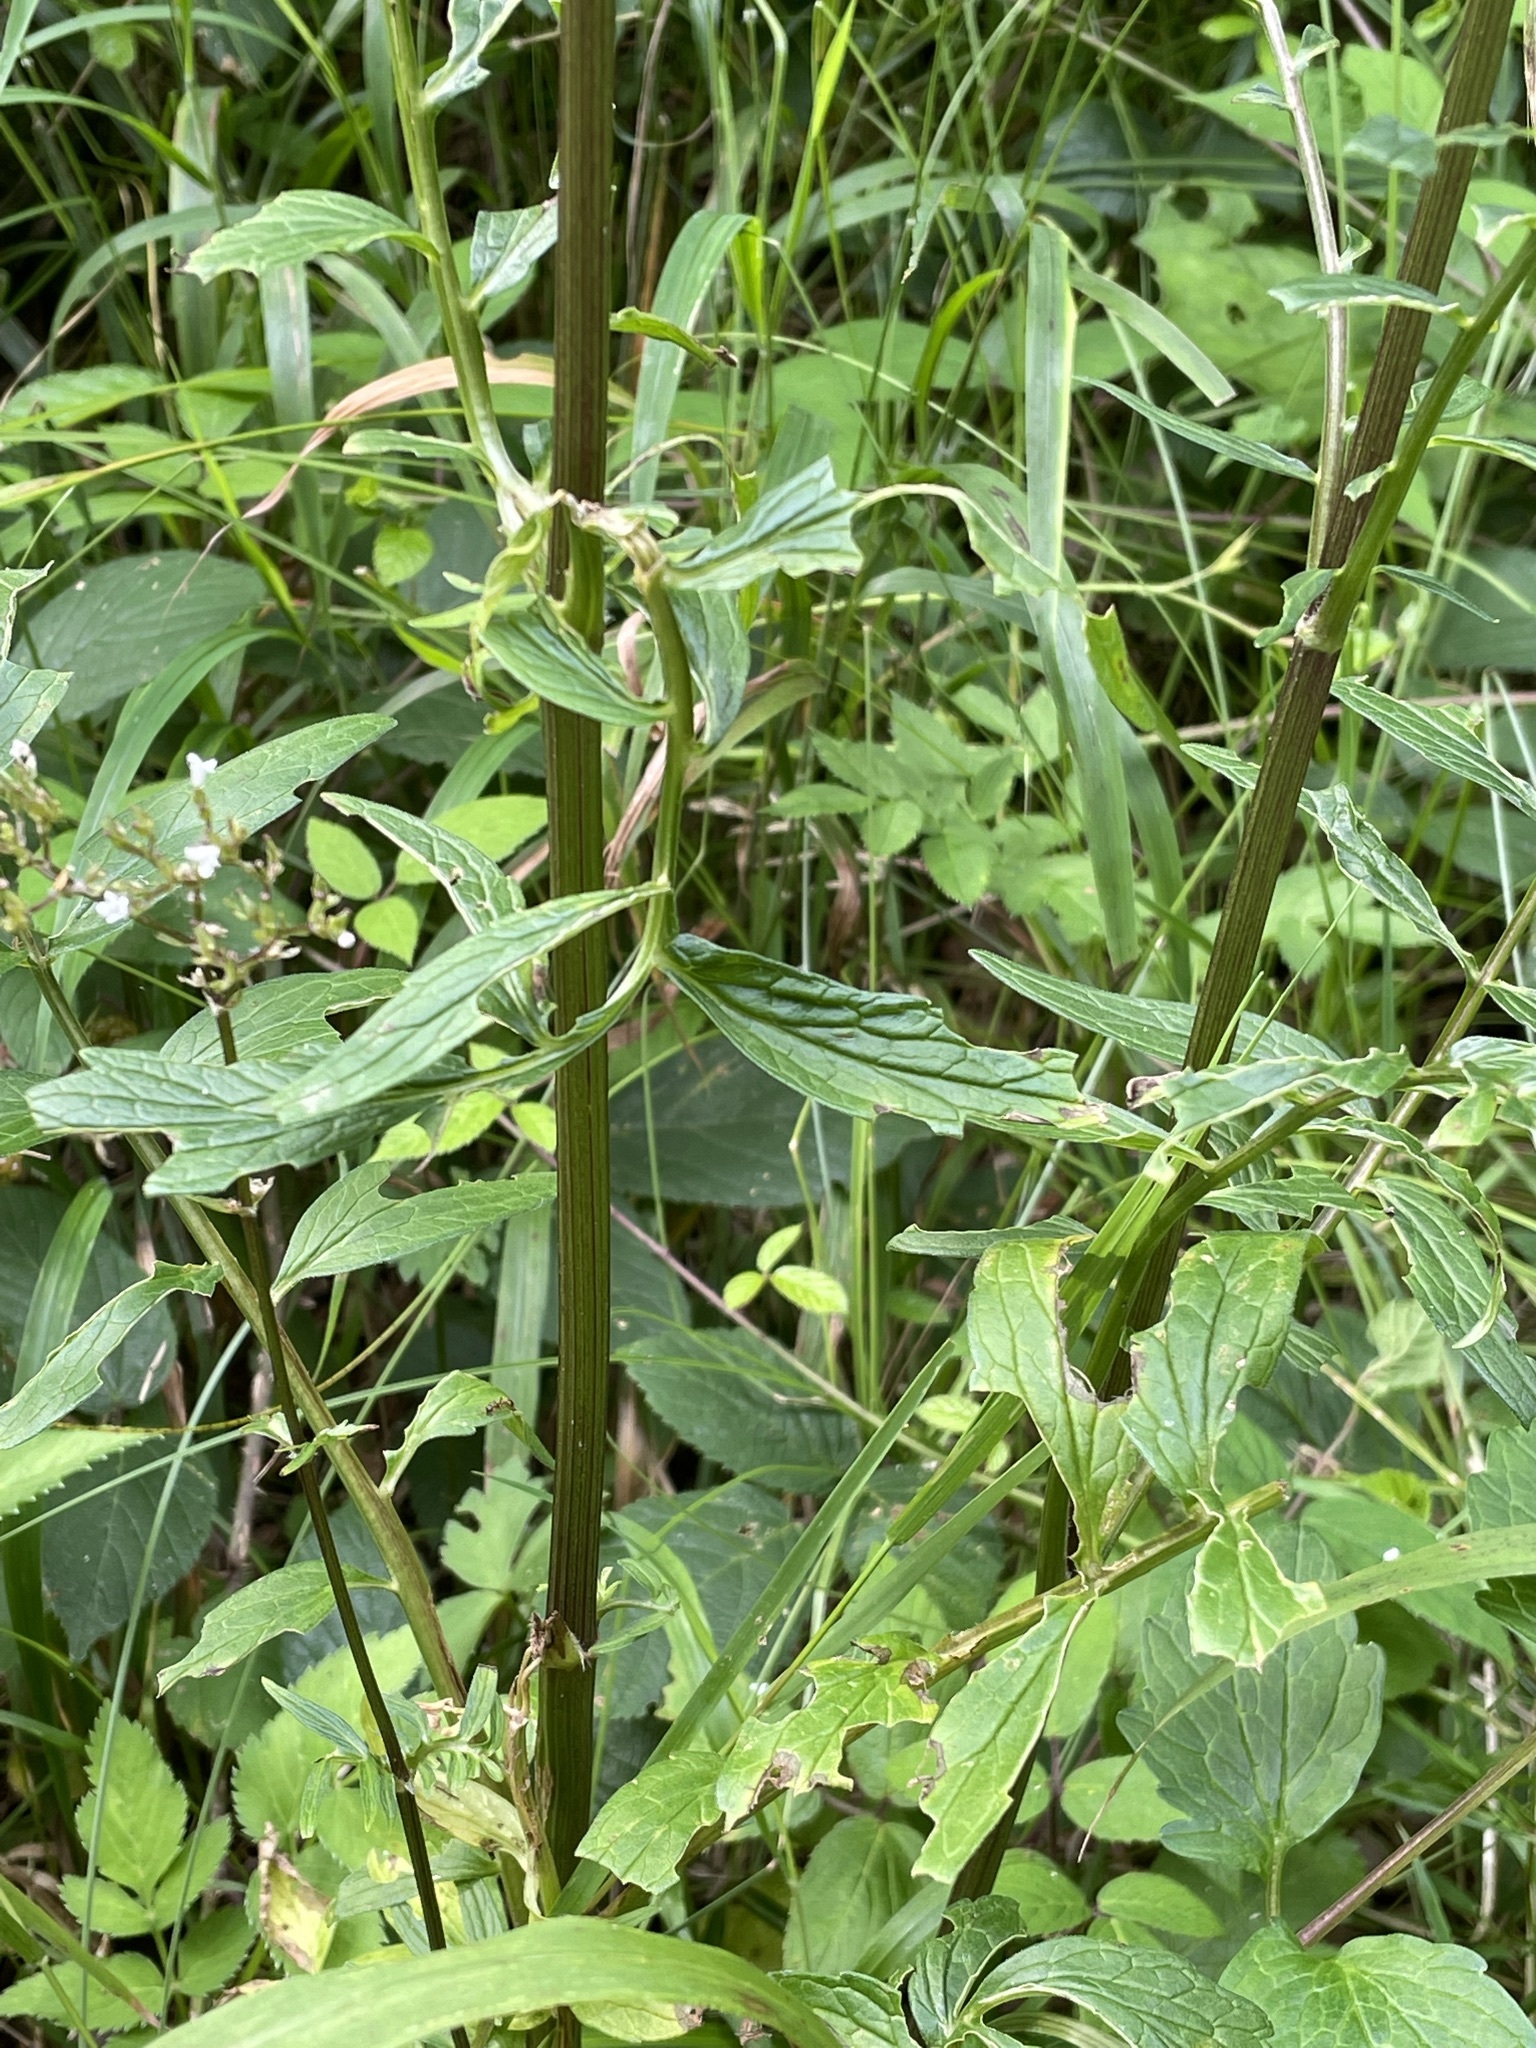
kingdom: Plantae
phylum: Tracheophyta
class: Magnoliopsida
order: Dipsacales
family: Caprifoliaceae
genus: Valeriana
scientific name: Valeriana officinalis
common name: Common valerian
